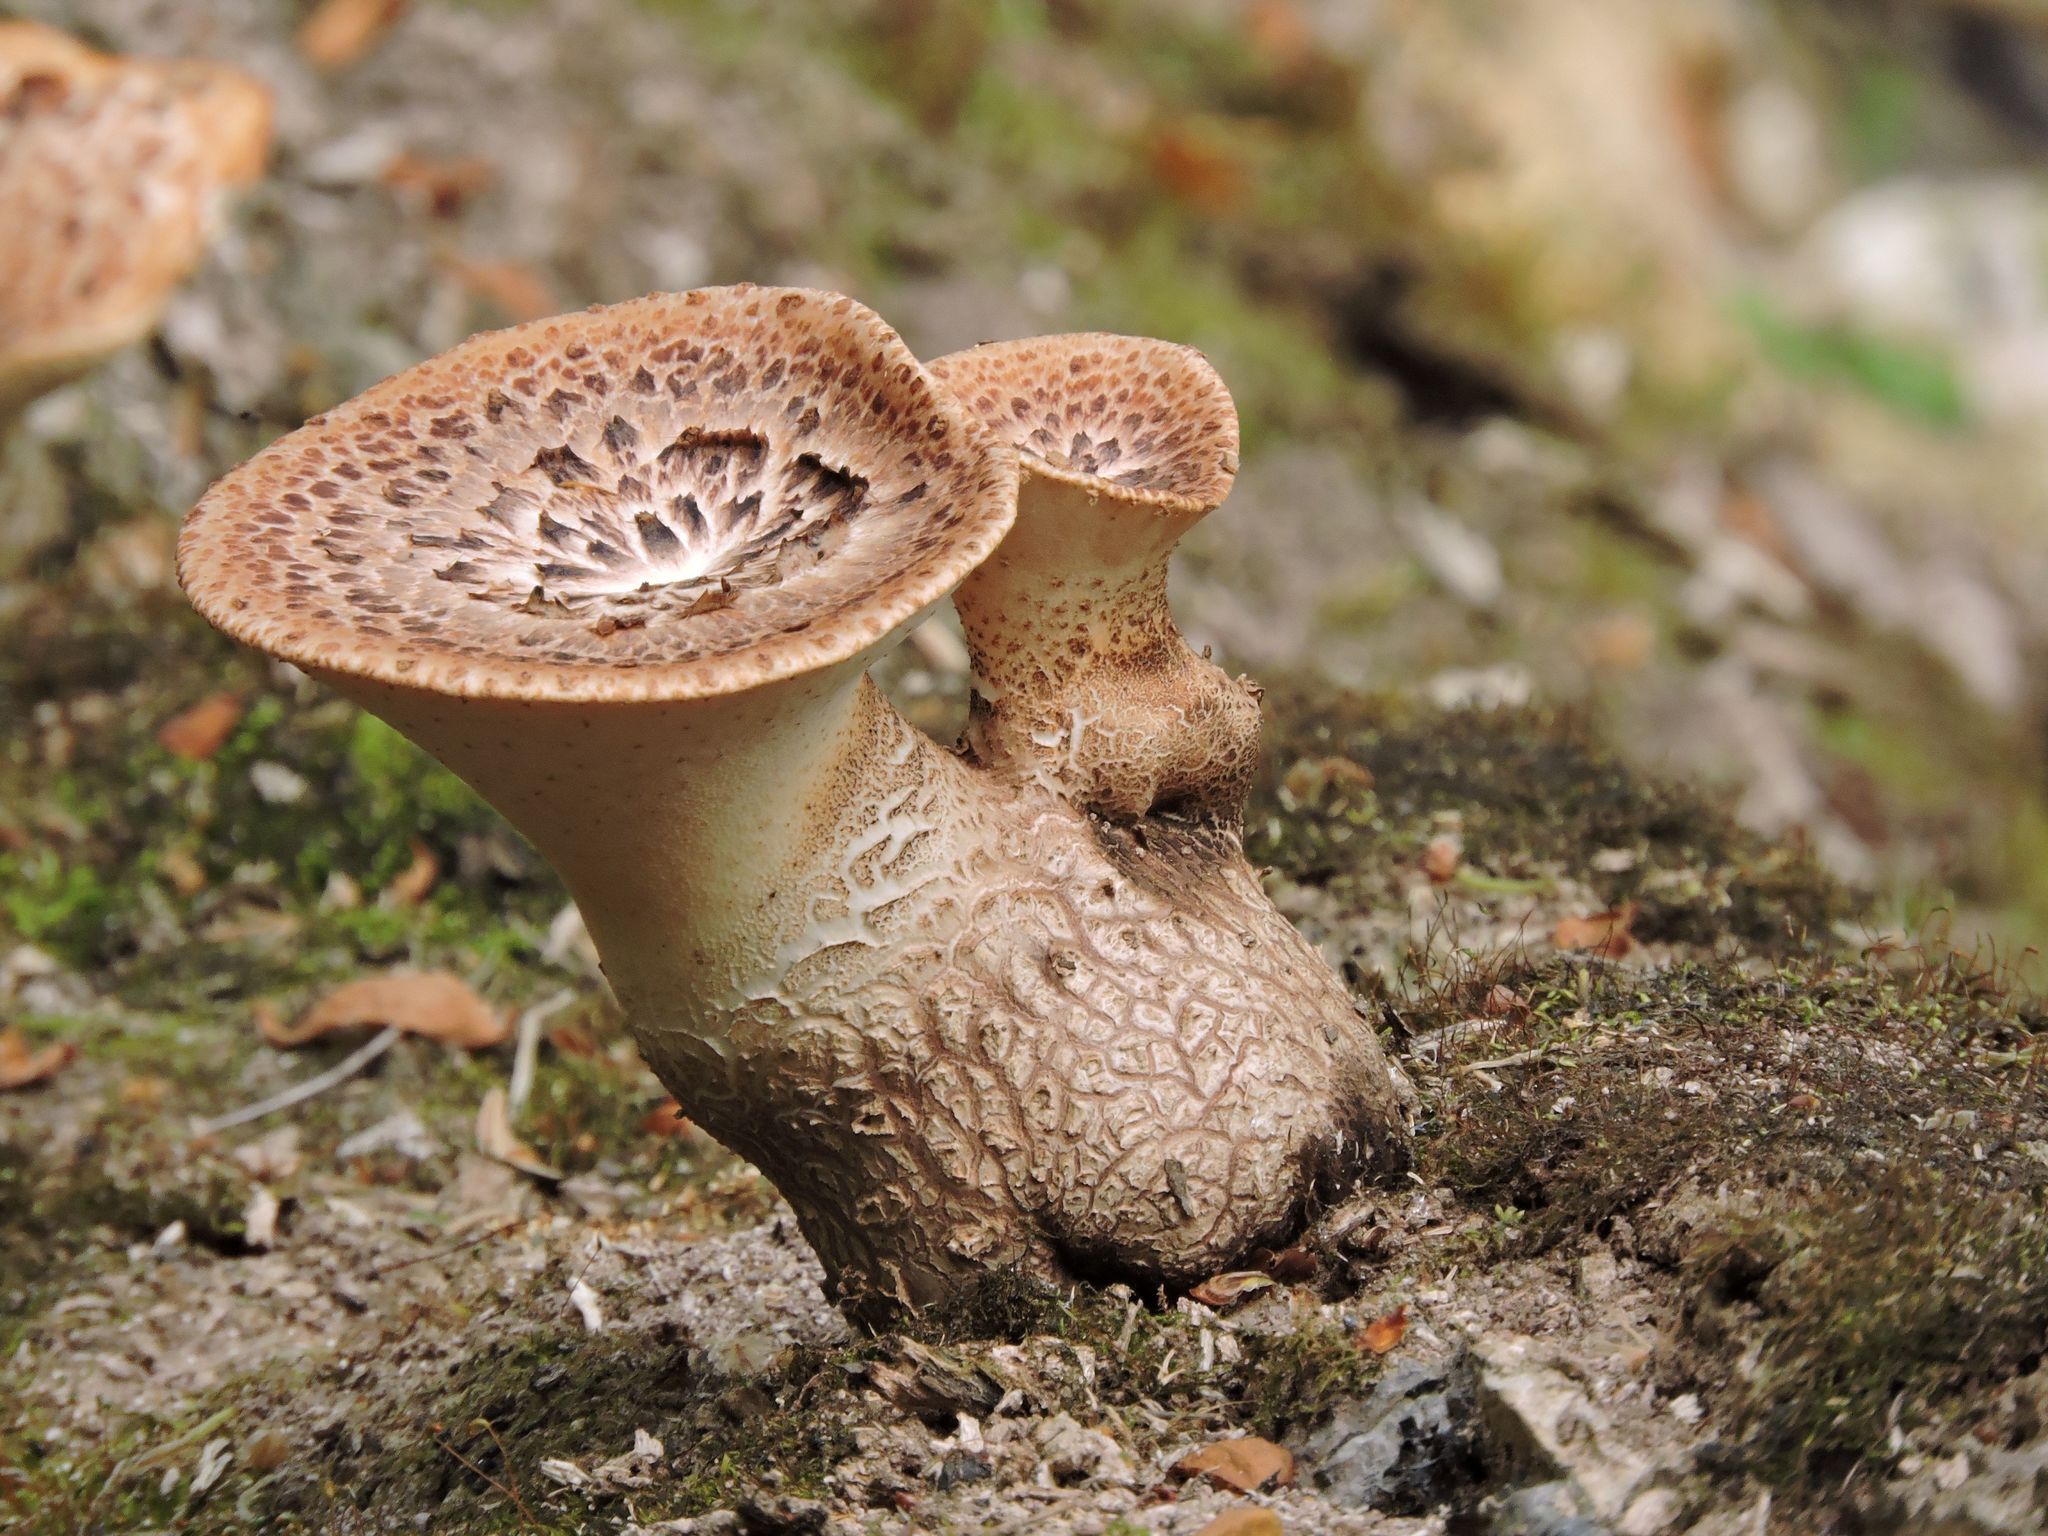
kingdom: Fungi
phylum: Basidiomycota
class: Agaricomycetes
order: Polyporales
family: Polyporaceae
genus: Cerioporus
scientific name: Cerioporus squamosus
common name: Dryad's saddle
